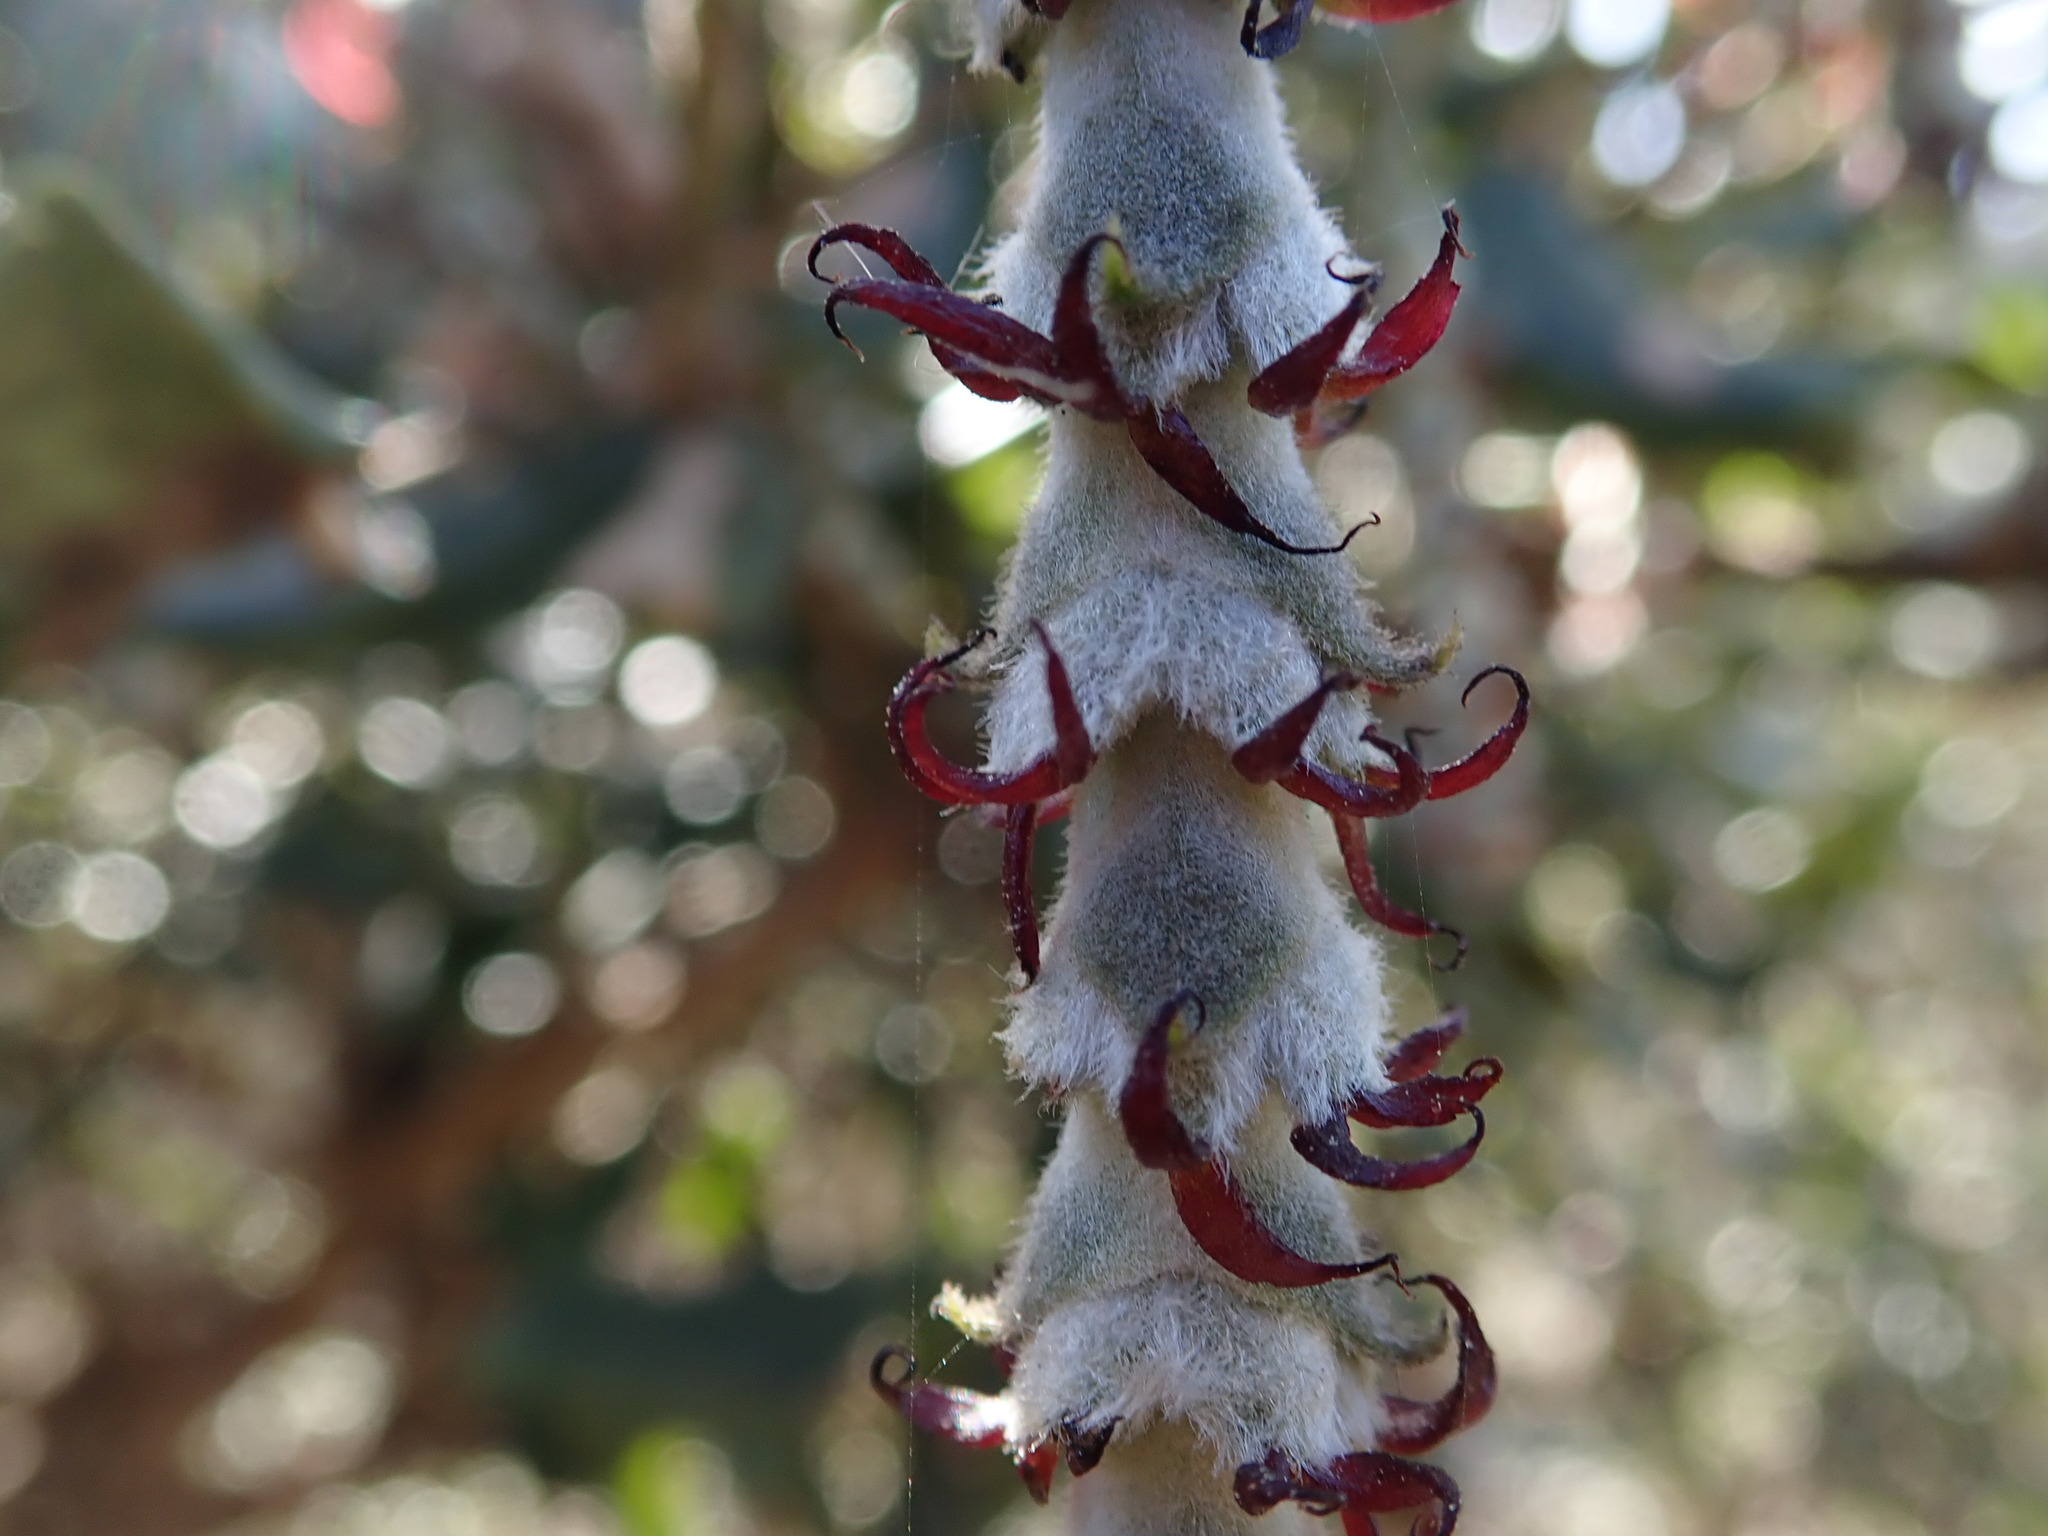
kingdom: Plantae
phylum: Tracheophyta
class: Magnoliopsida
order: Garryales
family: Garryaceae
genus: Garrya
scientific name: Garrya elliptica
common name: Silk-tassel
